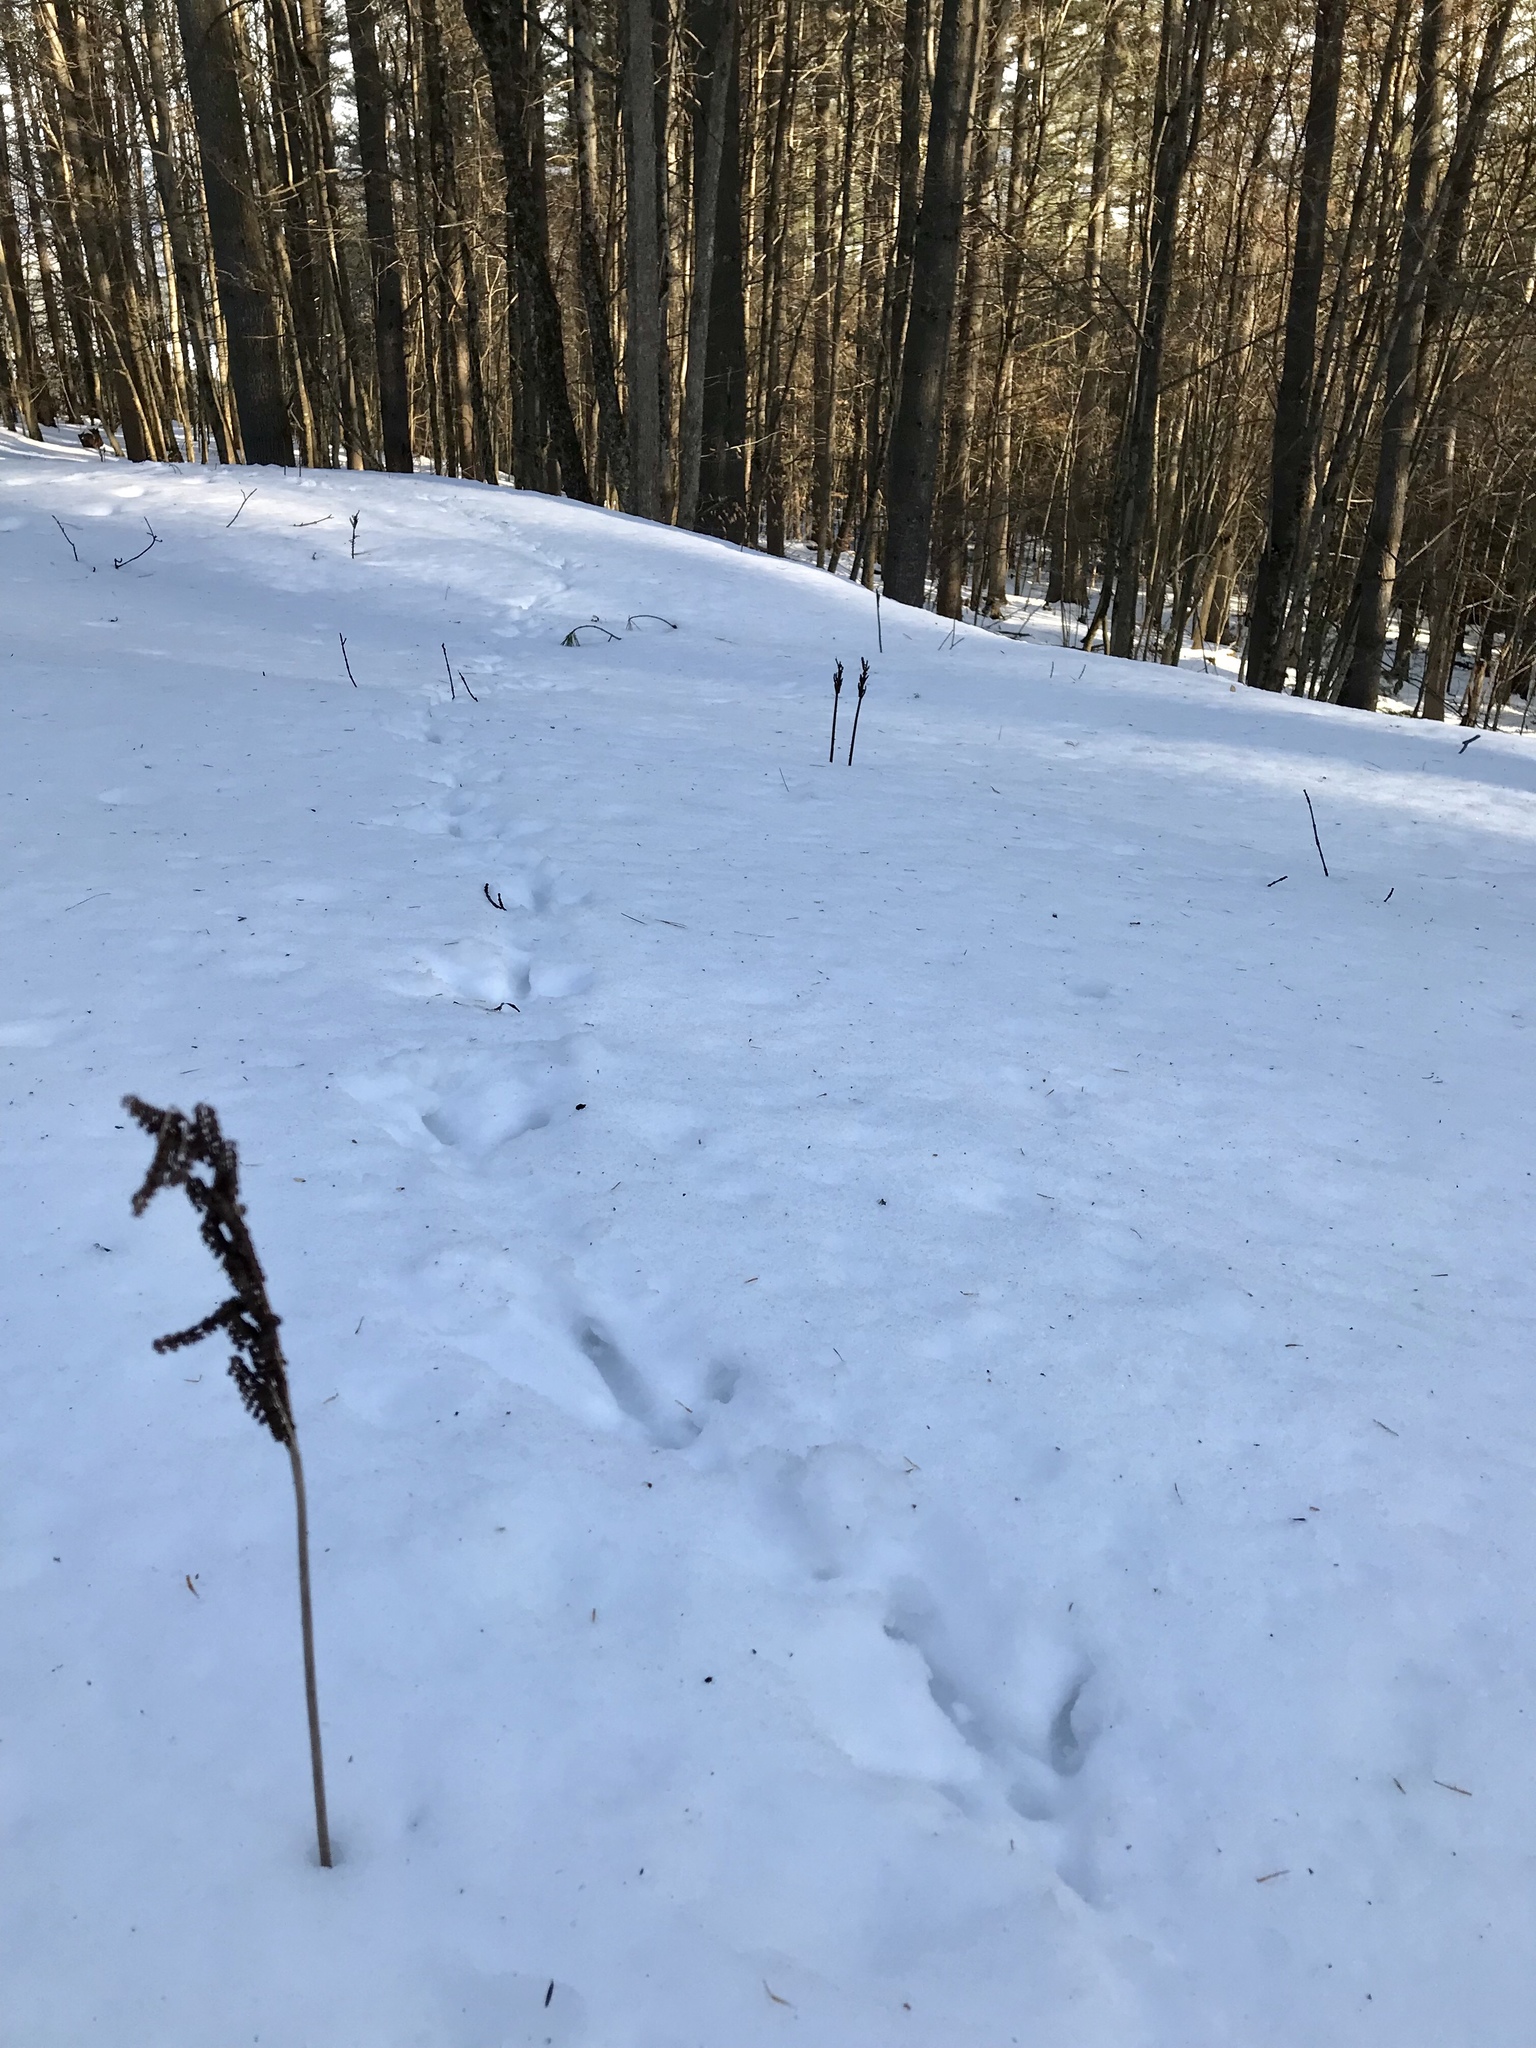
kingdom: Animalia
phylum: Chordata
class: Aves
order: Galliformes
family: Phasianidae
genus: Meleagris
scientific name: Meleagris gallopavo
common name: Wild turkey
